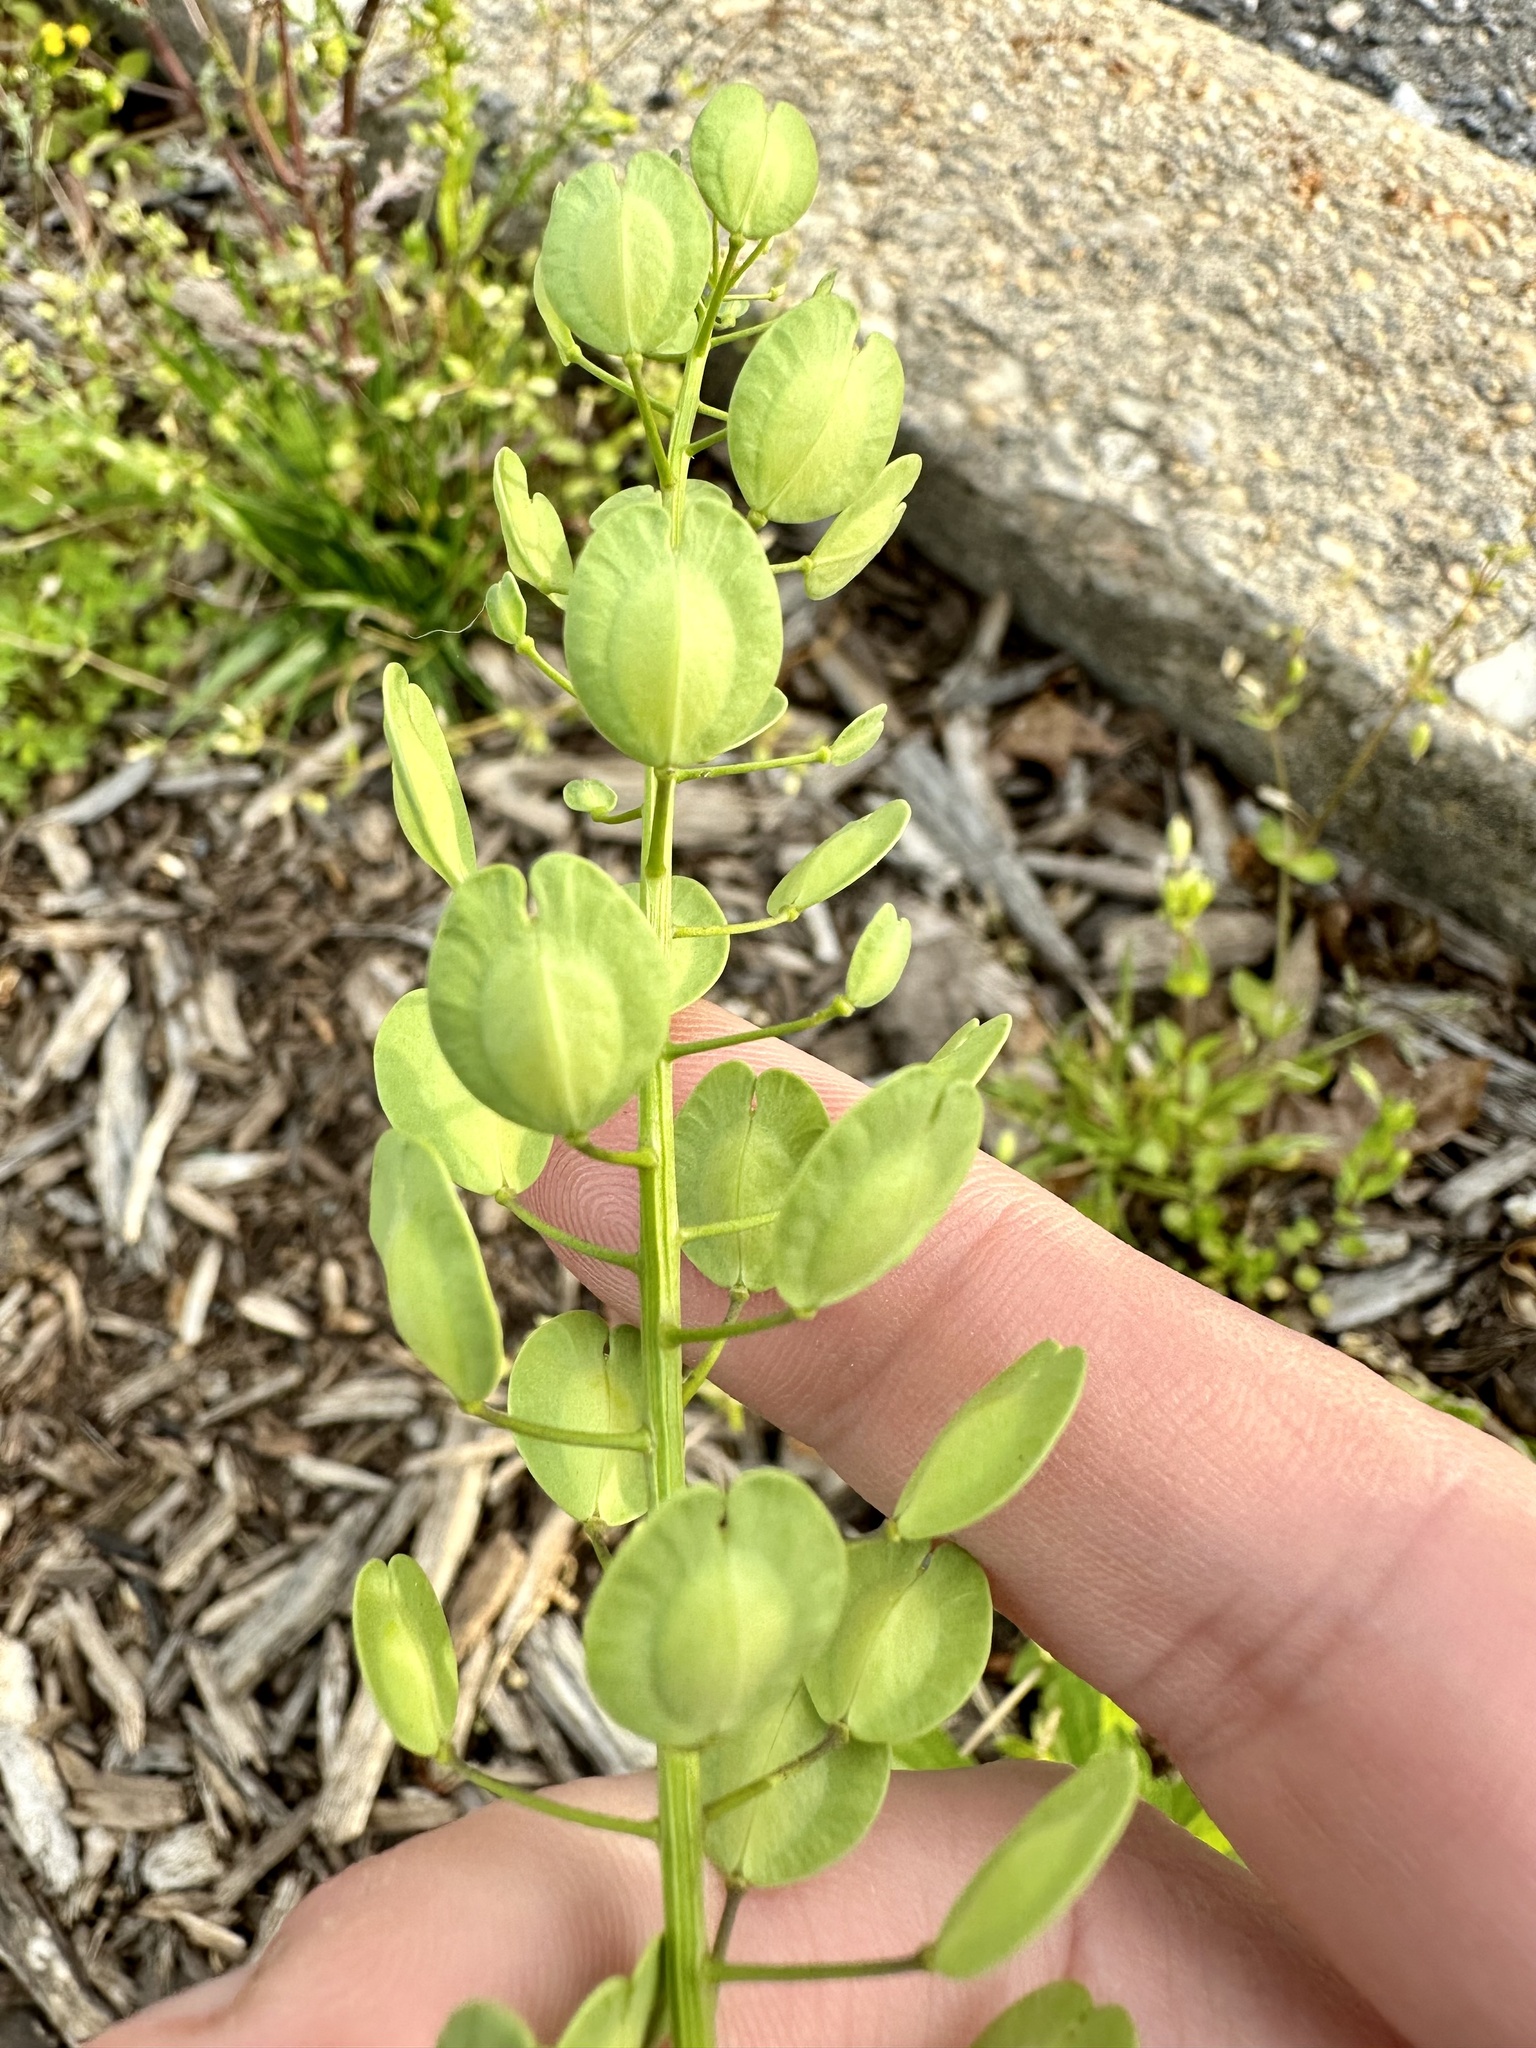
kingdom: Plantae
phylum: Tracheophyta
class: Magnoliopsida
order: Brassicales
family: Brassicaceae
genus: Thlaspi
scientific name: Thlaspi arvense
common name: Field pennycress
